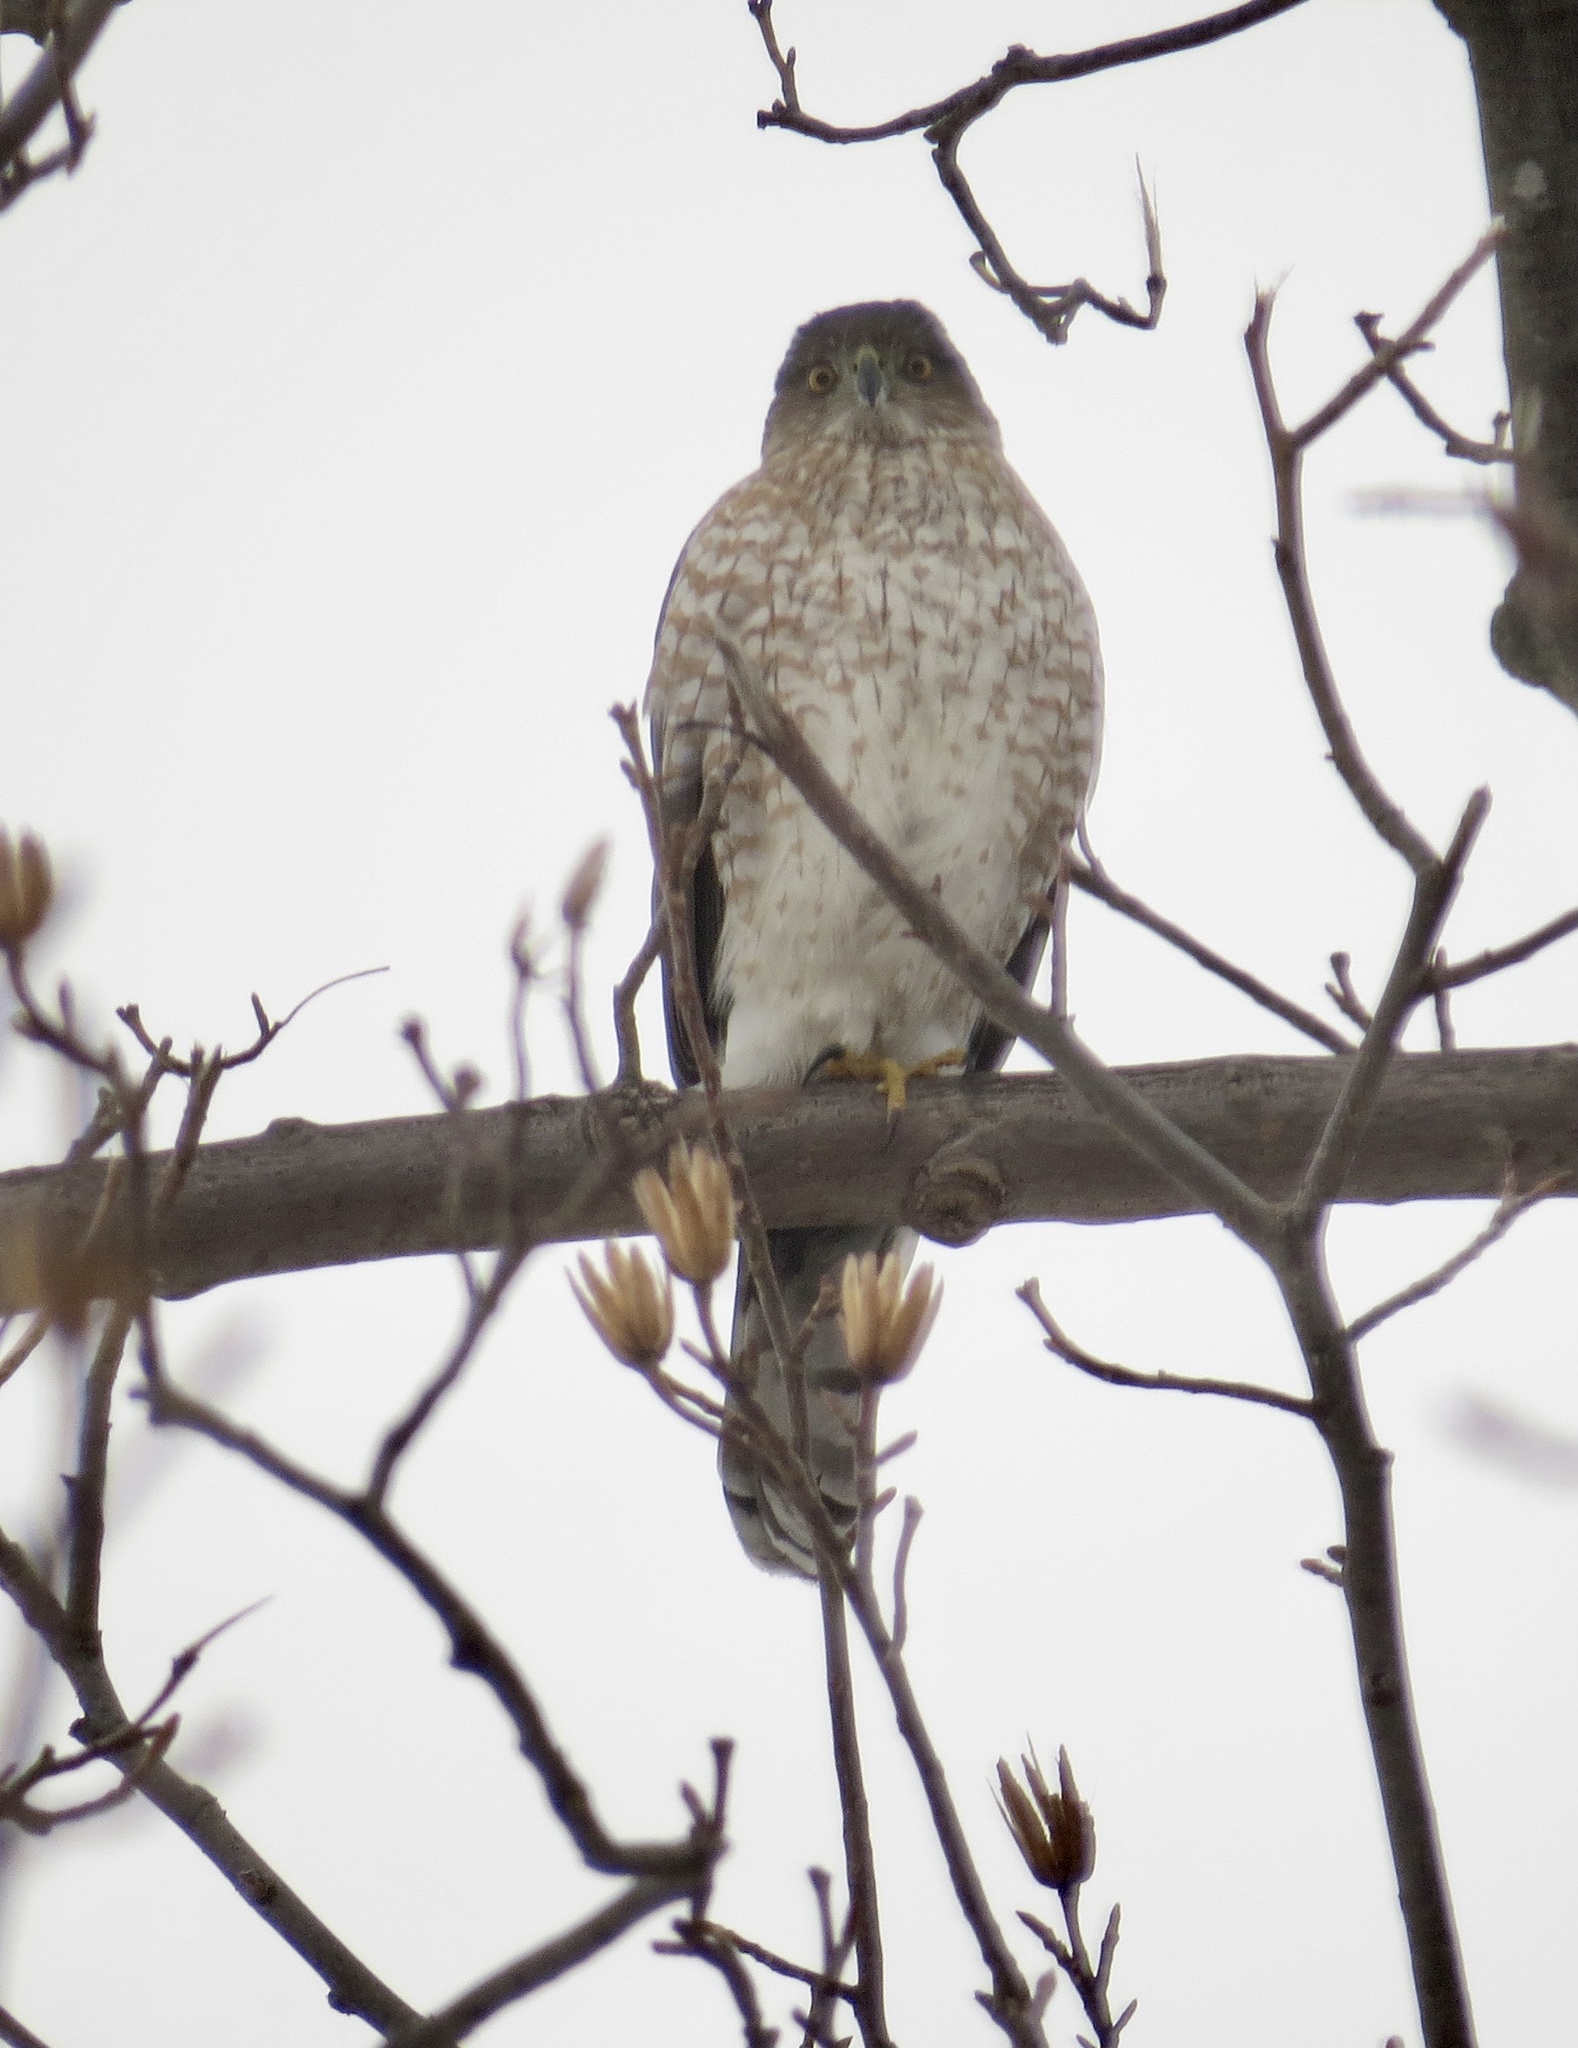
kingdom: Animalia
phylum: Chordata
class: Aves
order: Accipitriformes
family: Accipitridae
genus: Accipiter
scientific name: Accipiter cooperii
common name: Cooper's hawk
